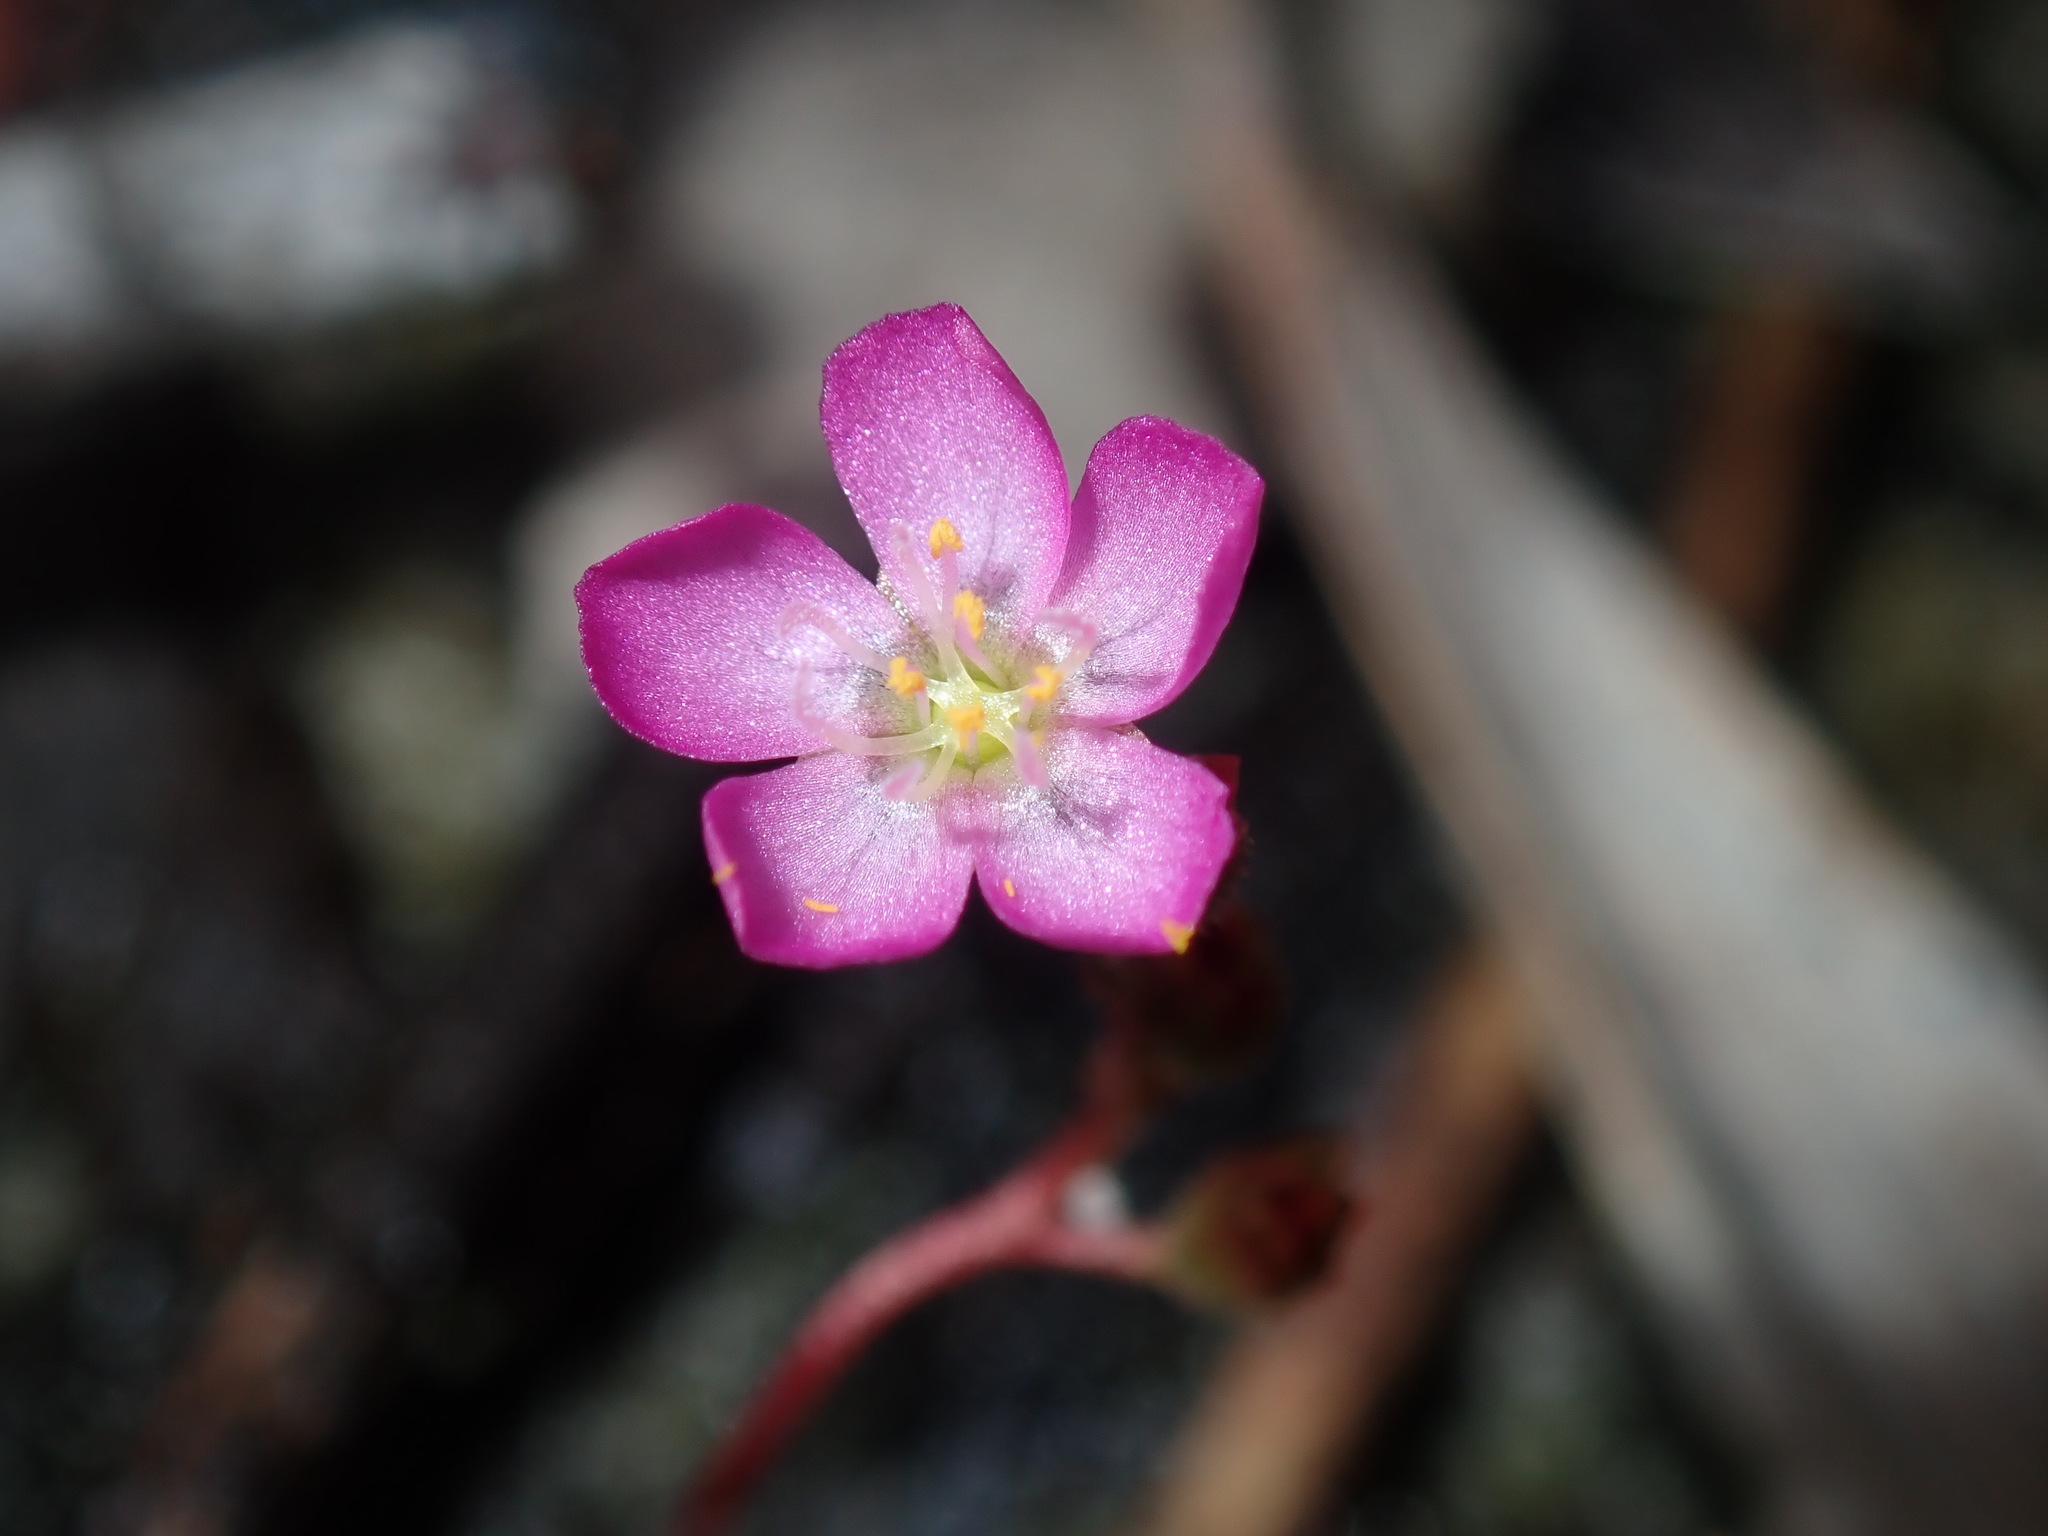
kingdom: Plantae
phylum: Tracheophyta
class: Magnoliopsida
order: Caryophyllales
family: Droseraceae
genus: Drosera
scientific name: Drosera spatulata
